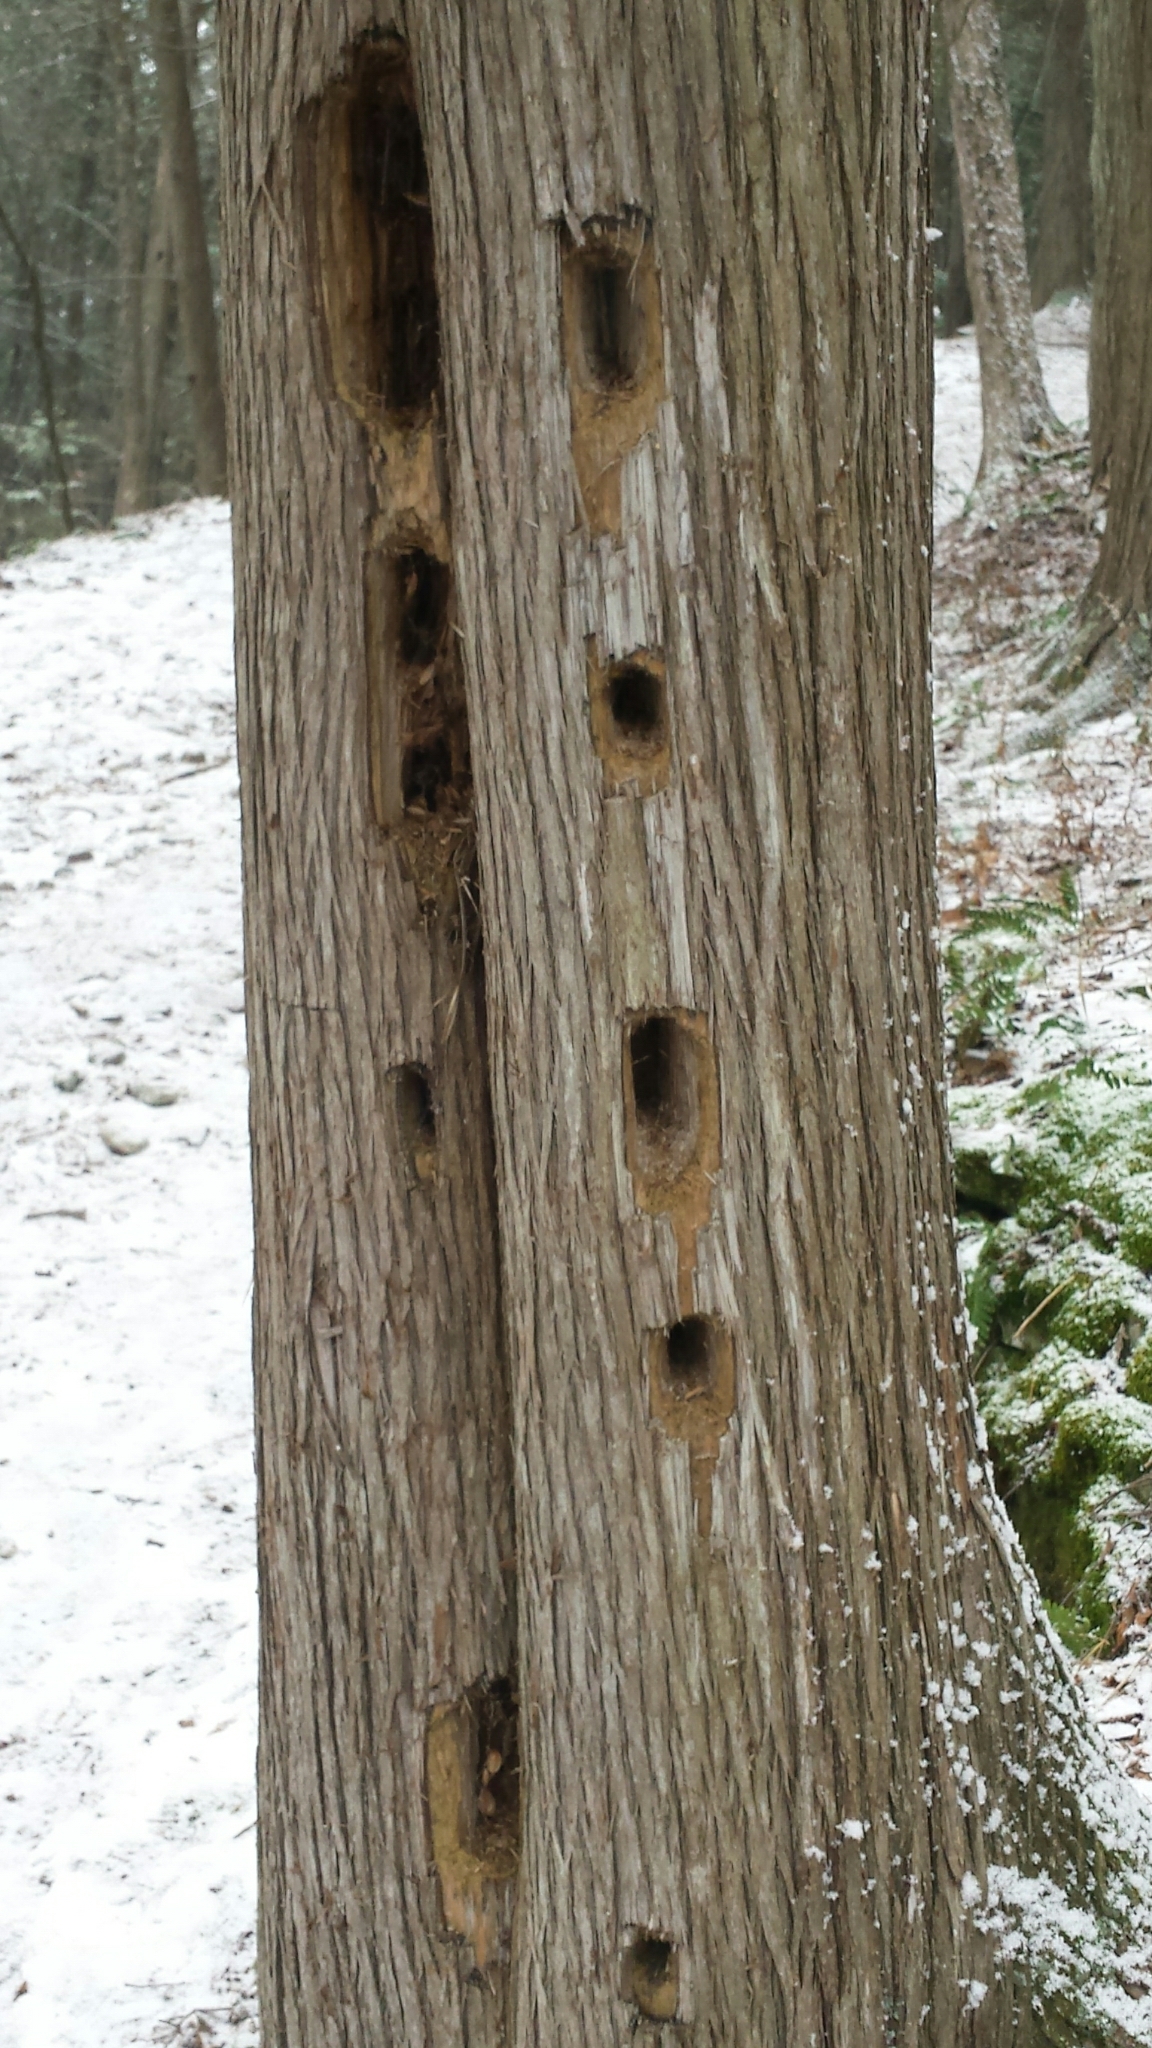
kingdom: Animalia
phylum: Chordata
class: Aves
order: Piciformes
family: Picidae
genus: Dryocopus
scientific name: Dryocopus pileatus
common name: Pileated woodpecker
